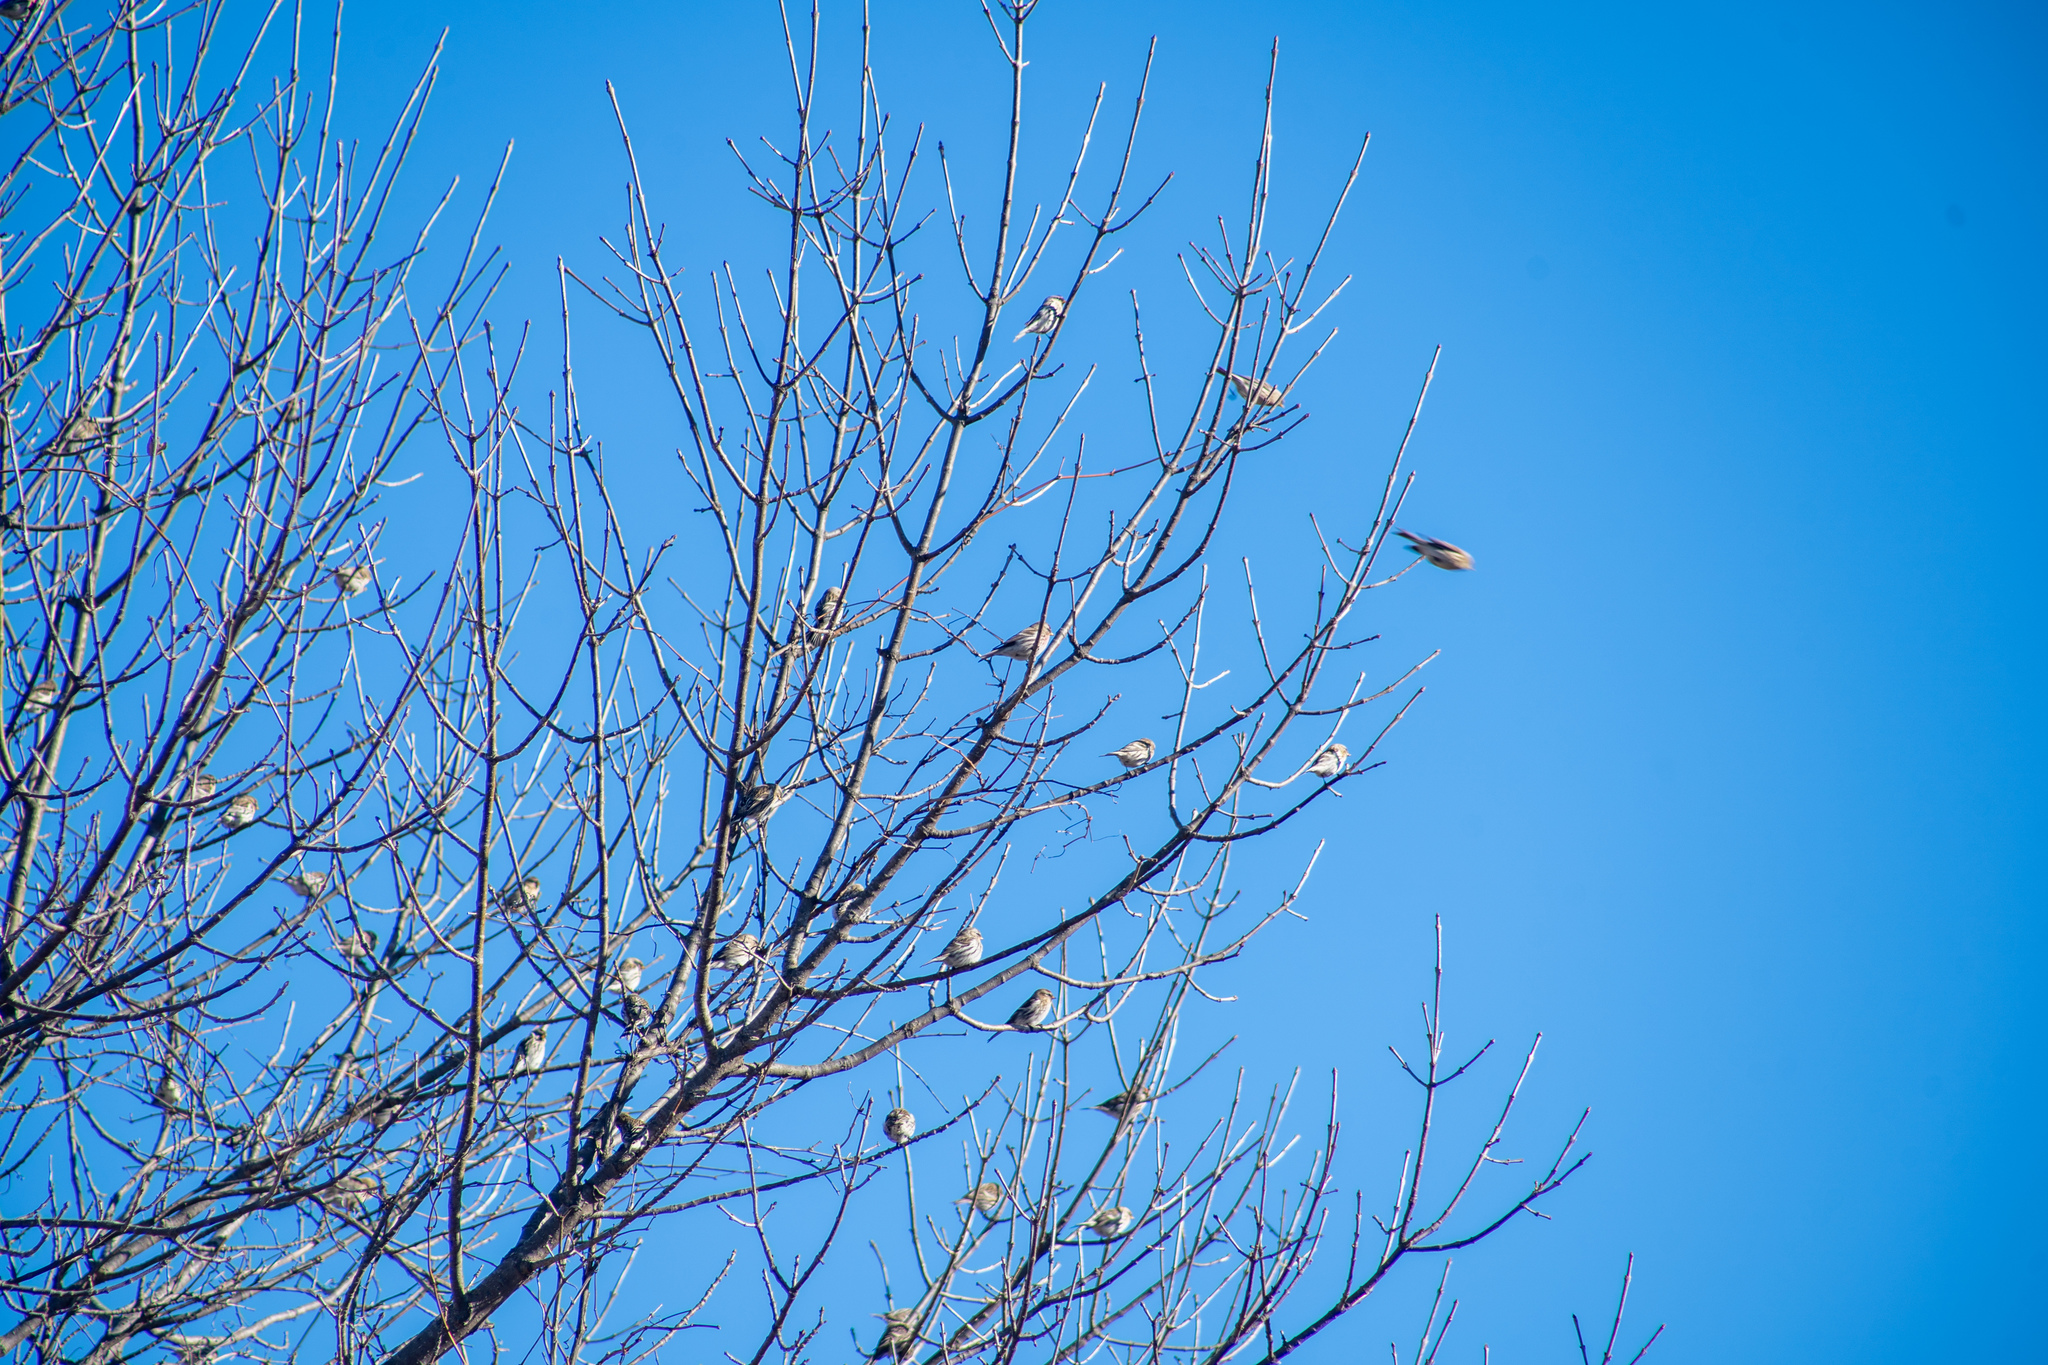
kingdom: Animalia
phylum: Chordata
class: Aves
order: Passeriformes
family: Fringillidae
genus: Acanthis
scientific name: Acanthis flammea
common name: Common redpoll
